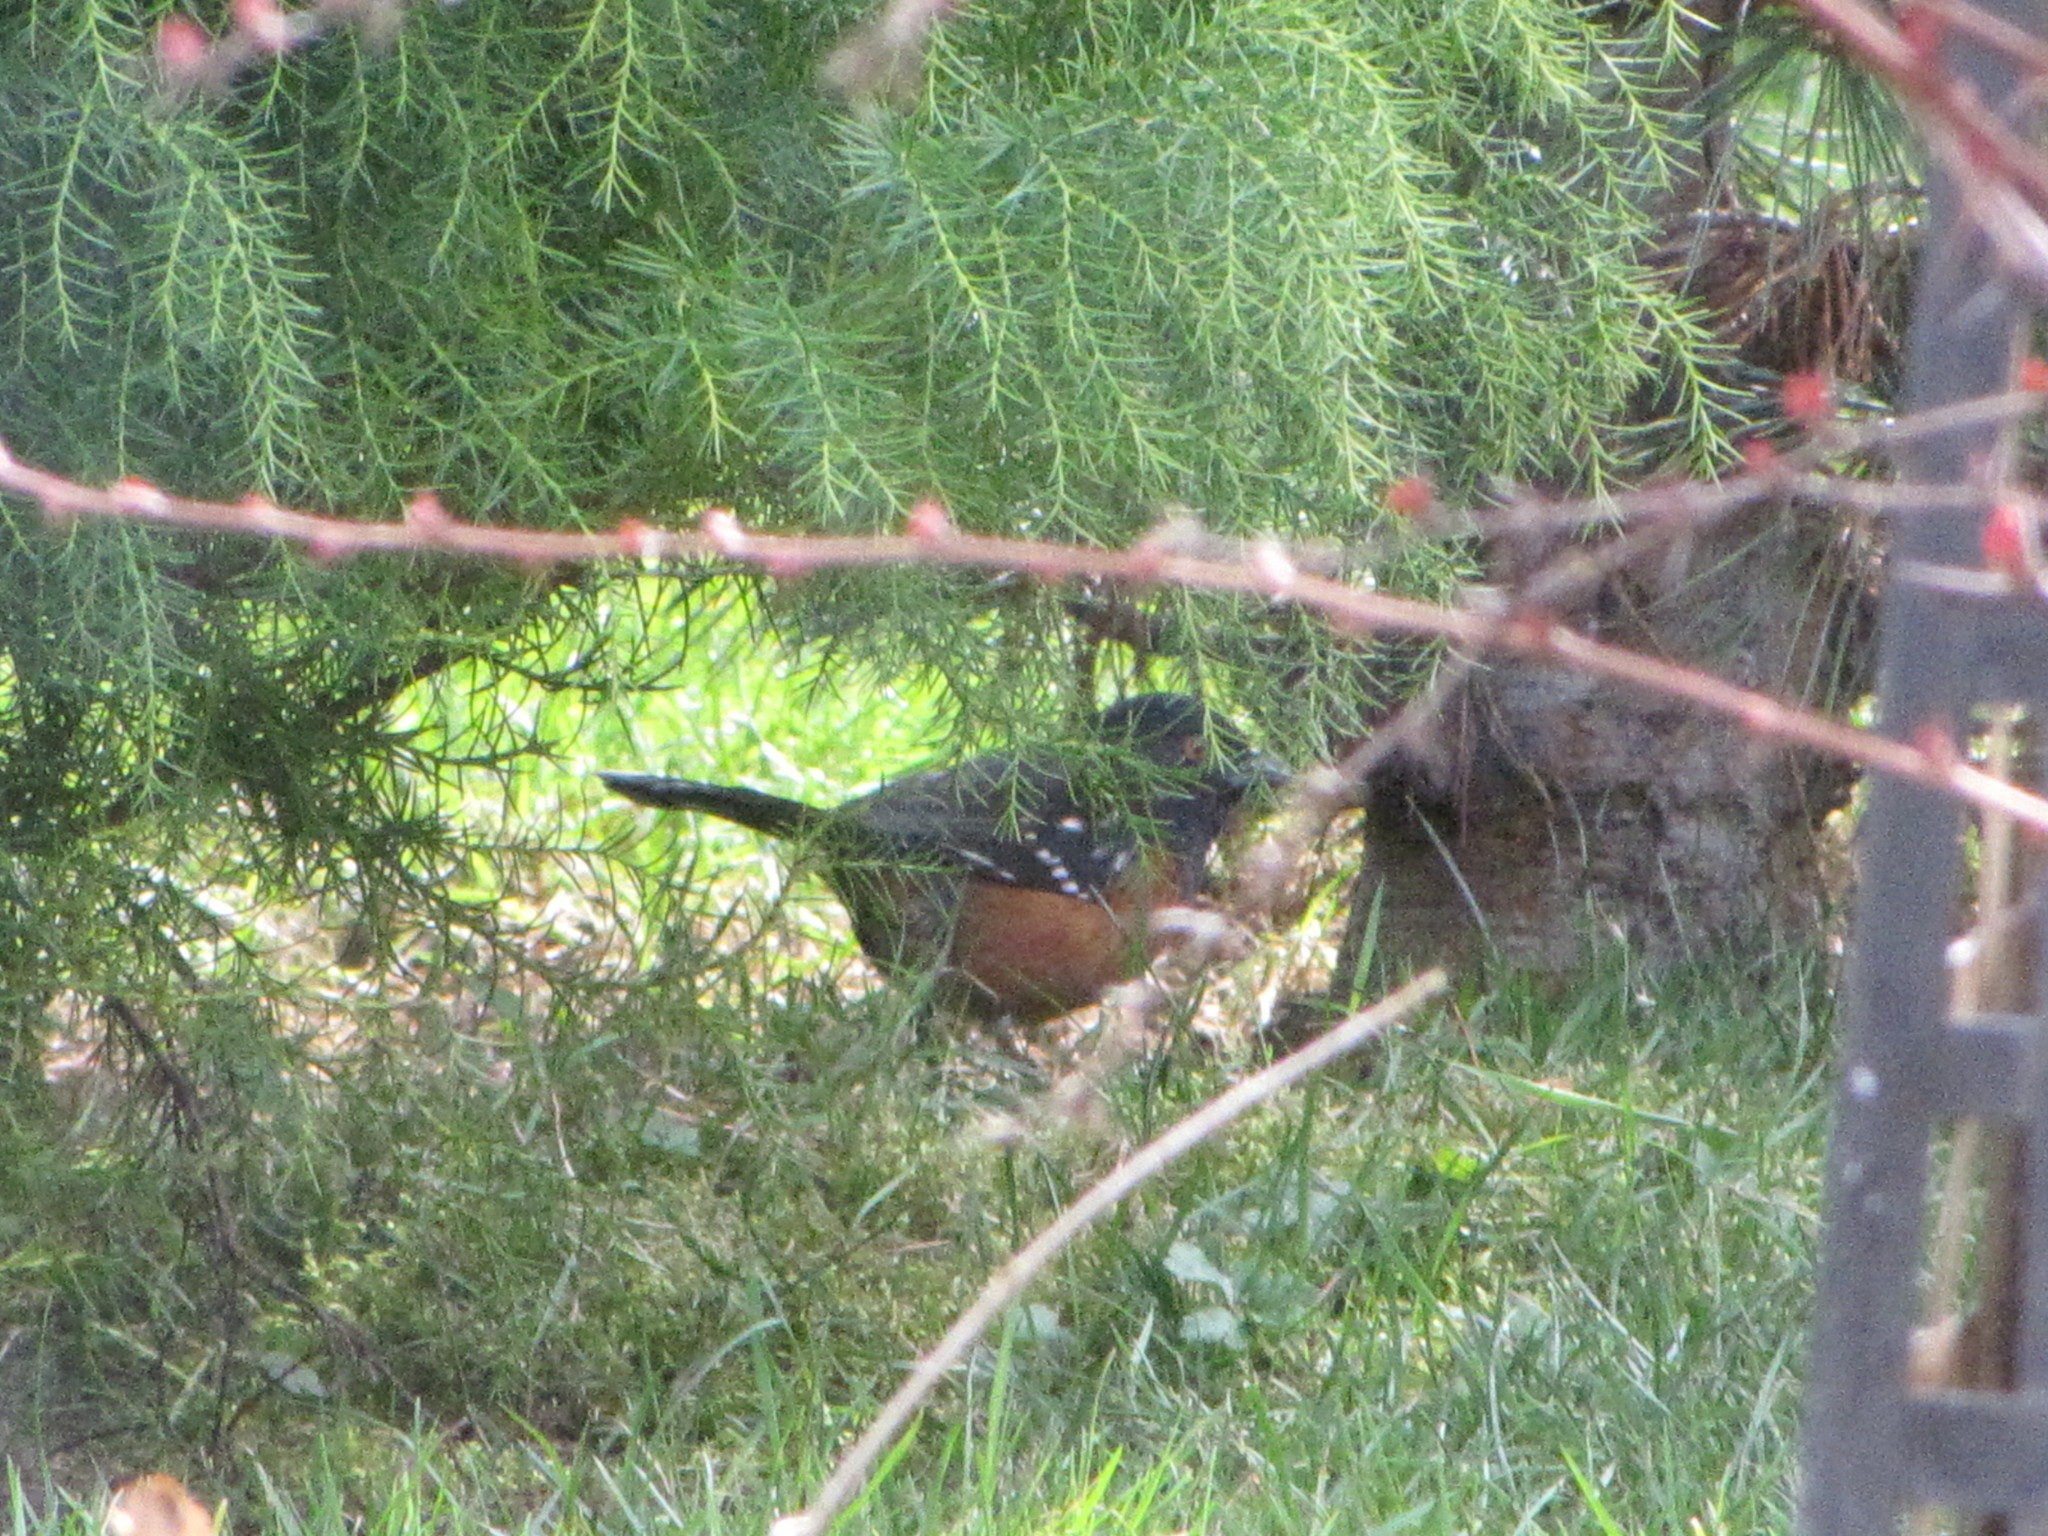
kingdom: Animalia
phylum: Chordata
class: Aves
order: Passeriformes
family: Passerellidae
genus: Pipilo
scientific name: Pipilo maculatus
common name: Spotted towhee
